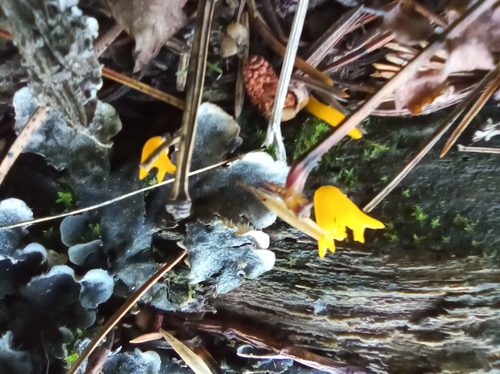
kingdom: Fungi
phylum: Basidiomycota
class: Dacrymycetes
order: Dacrymycetales
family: Dacrymycetaceae
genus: Calocera
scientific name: Calocera viscosa
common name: Yellow stagshorn
